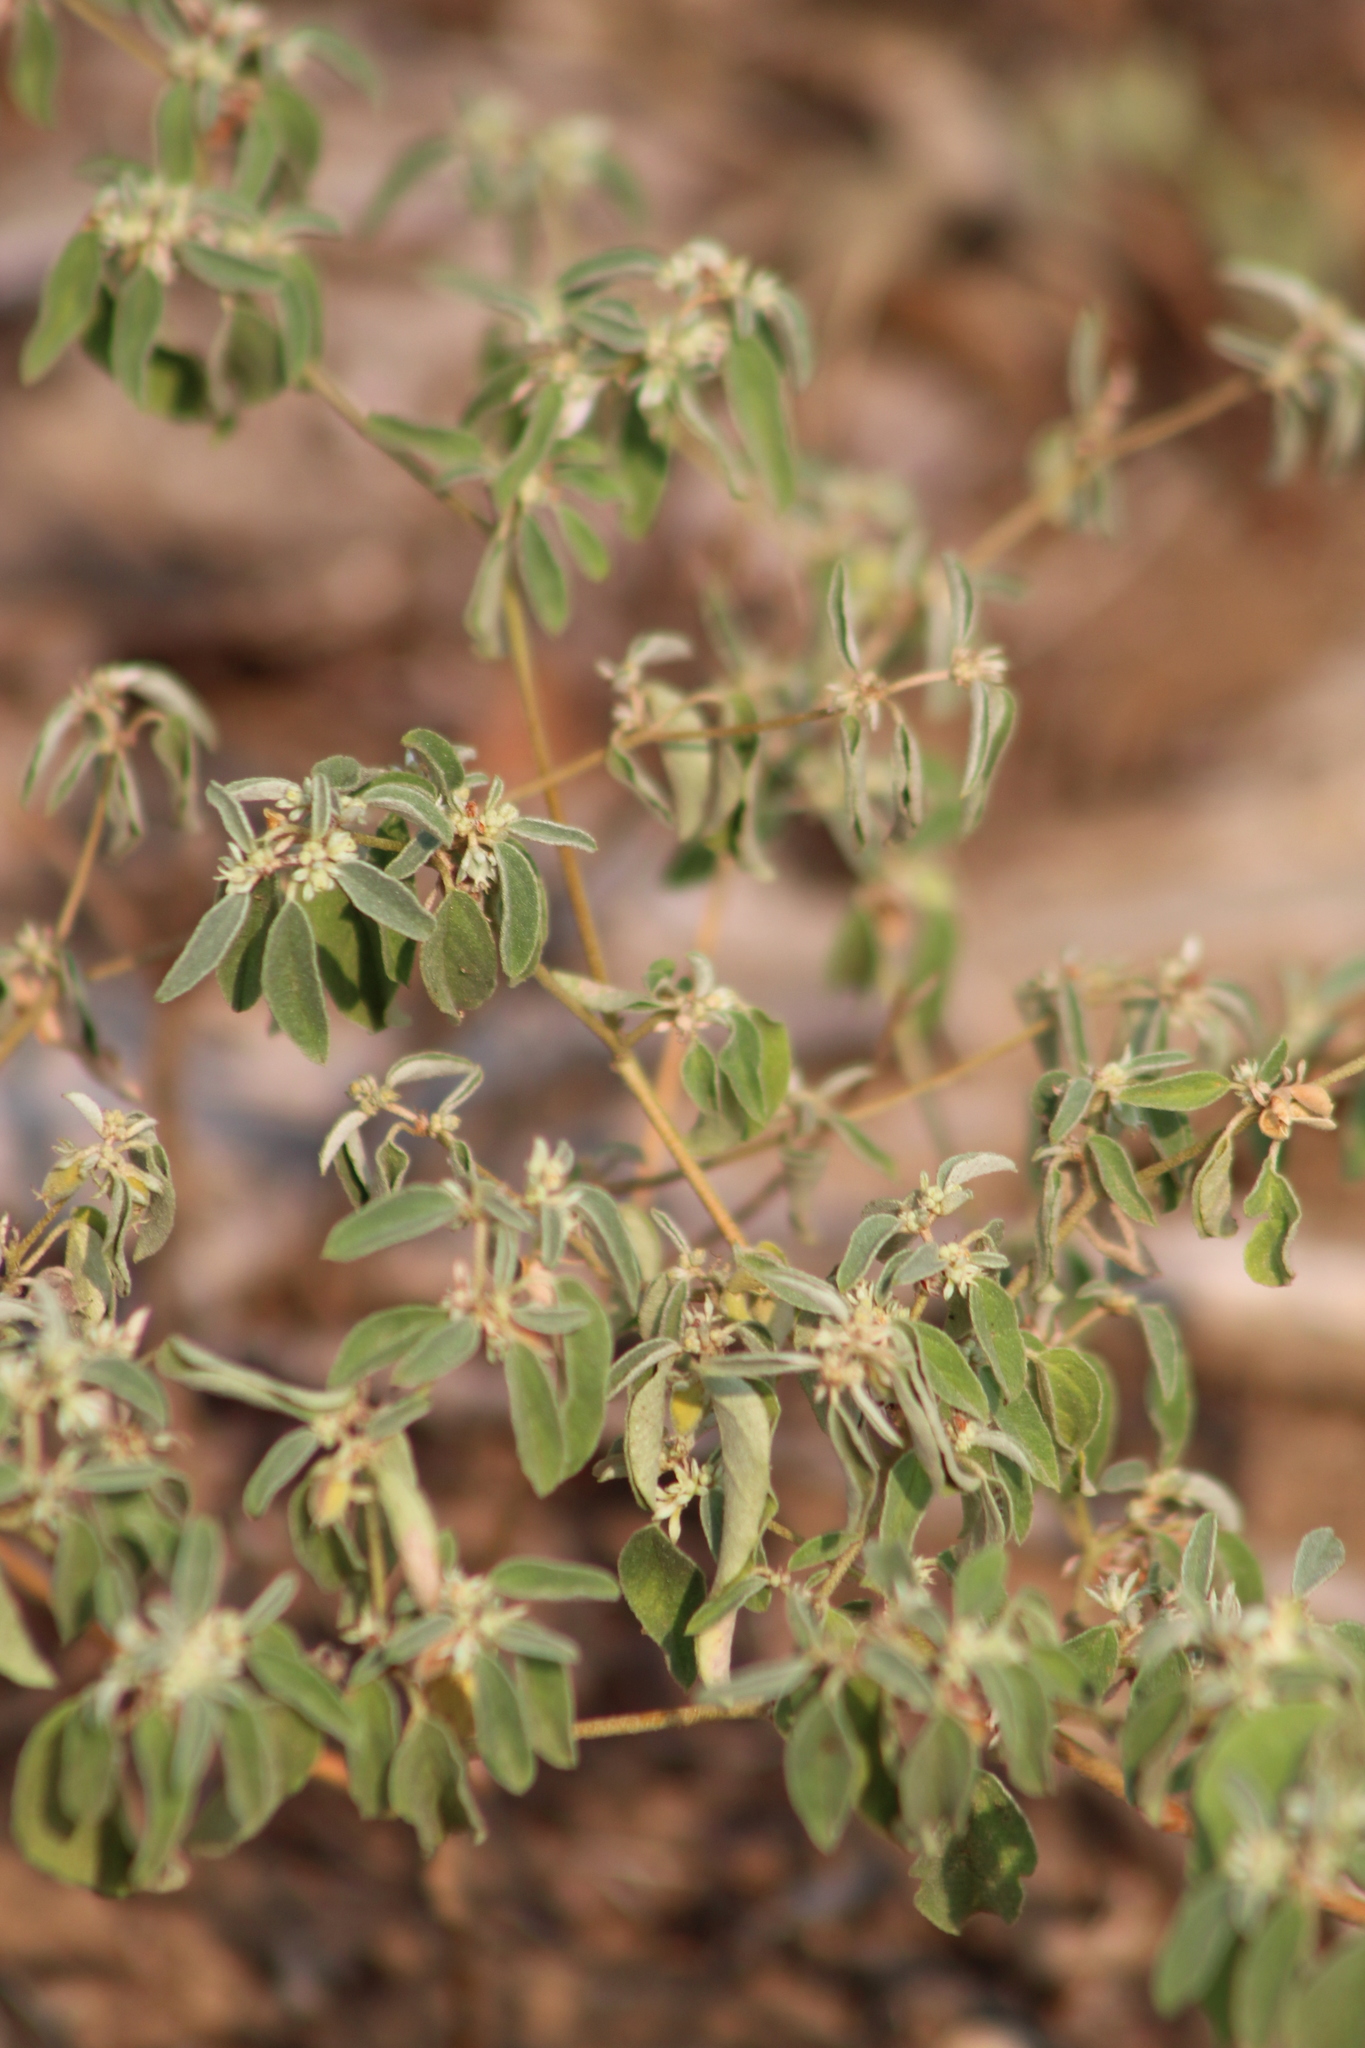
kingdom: Plantae
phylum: Tracheophyta
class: Magnoliopsida
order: Malpighiales
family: Euphorbiaceae
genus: Croton
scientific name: Croton monanthogynus
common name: One-seed croton
